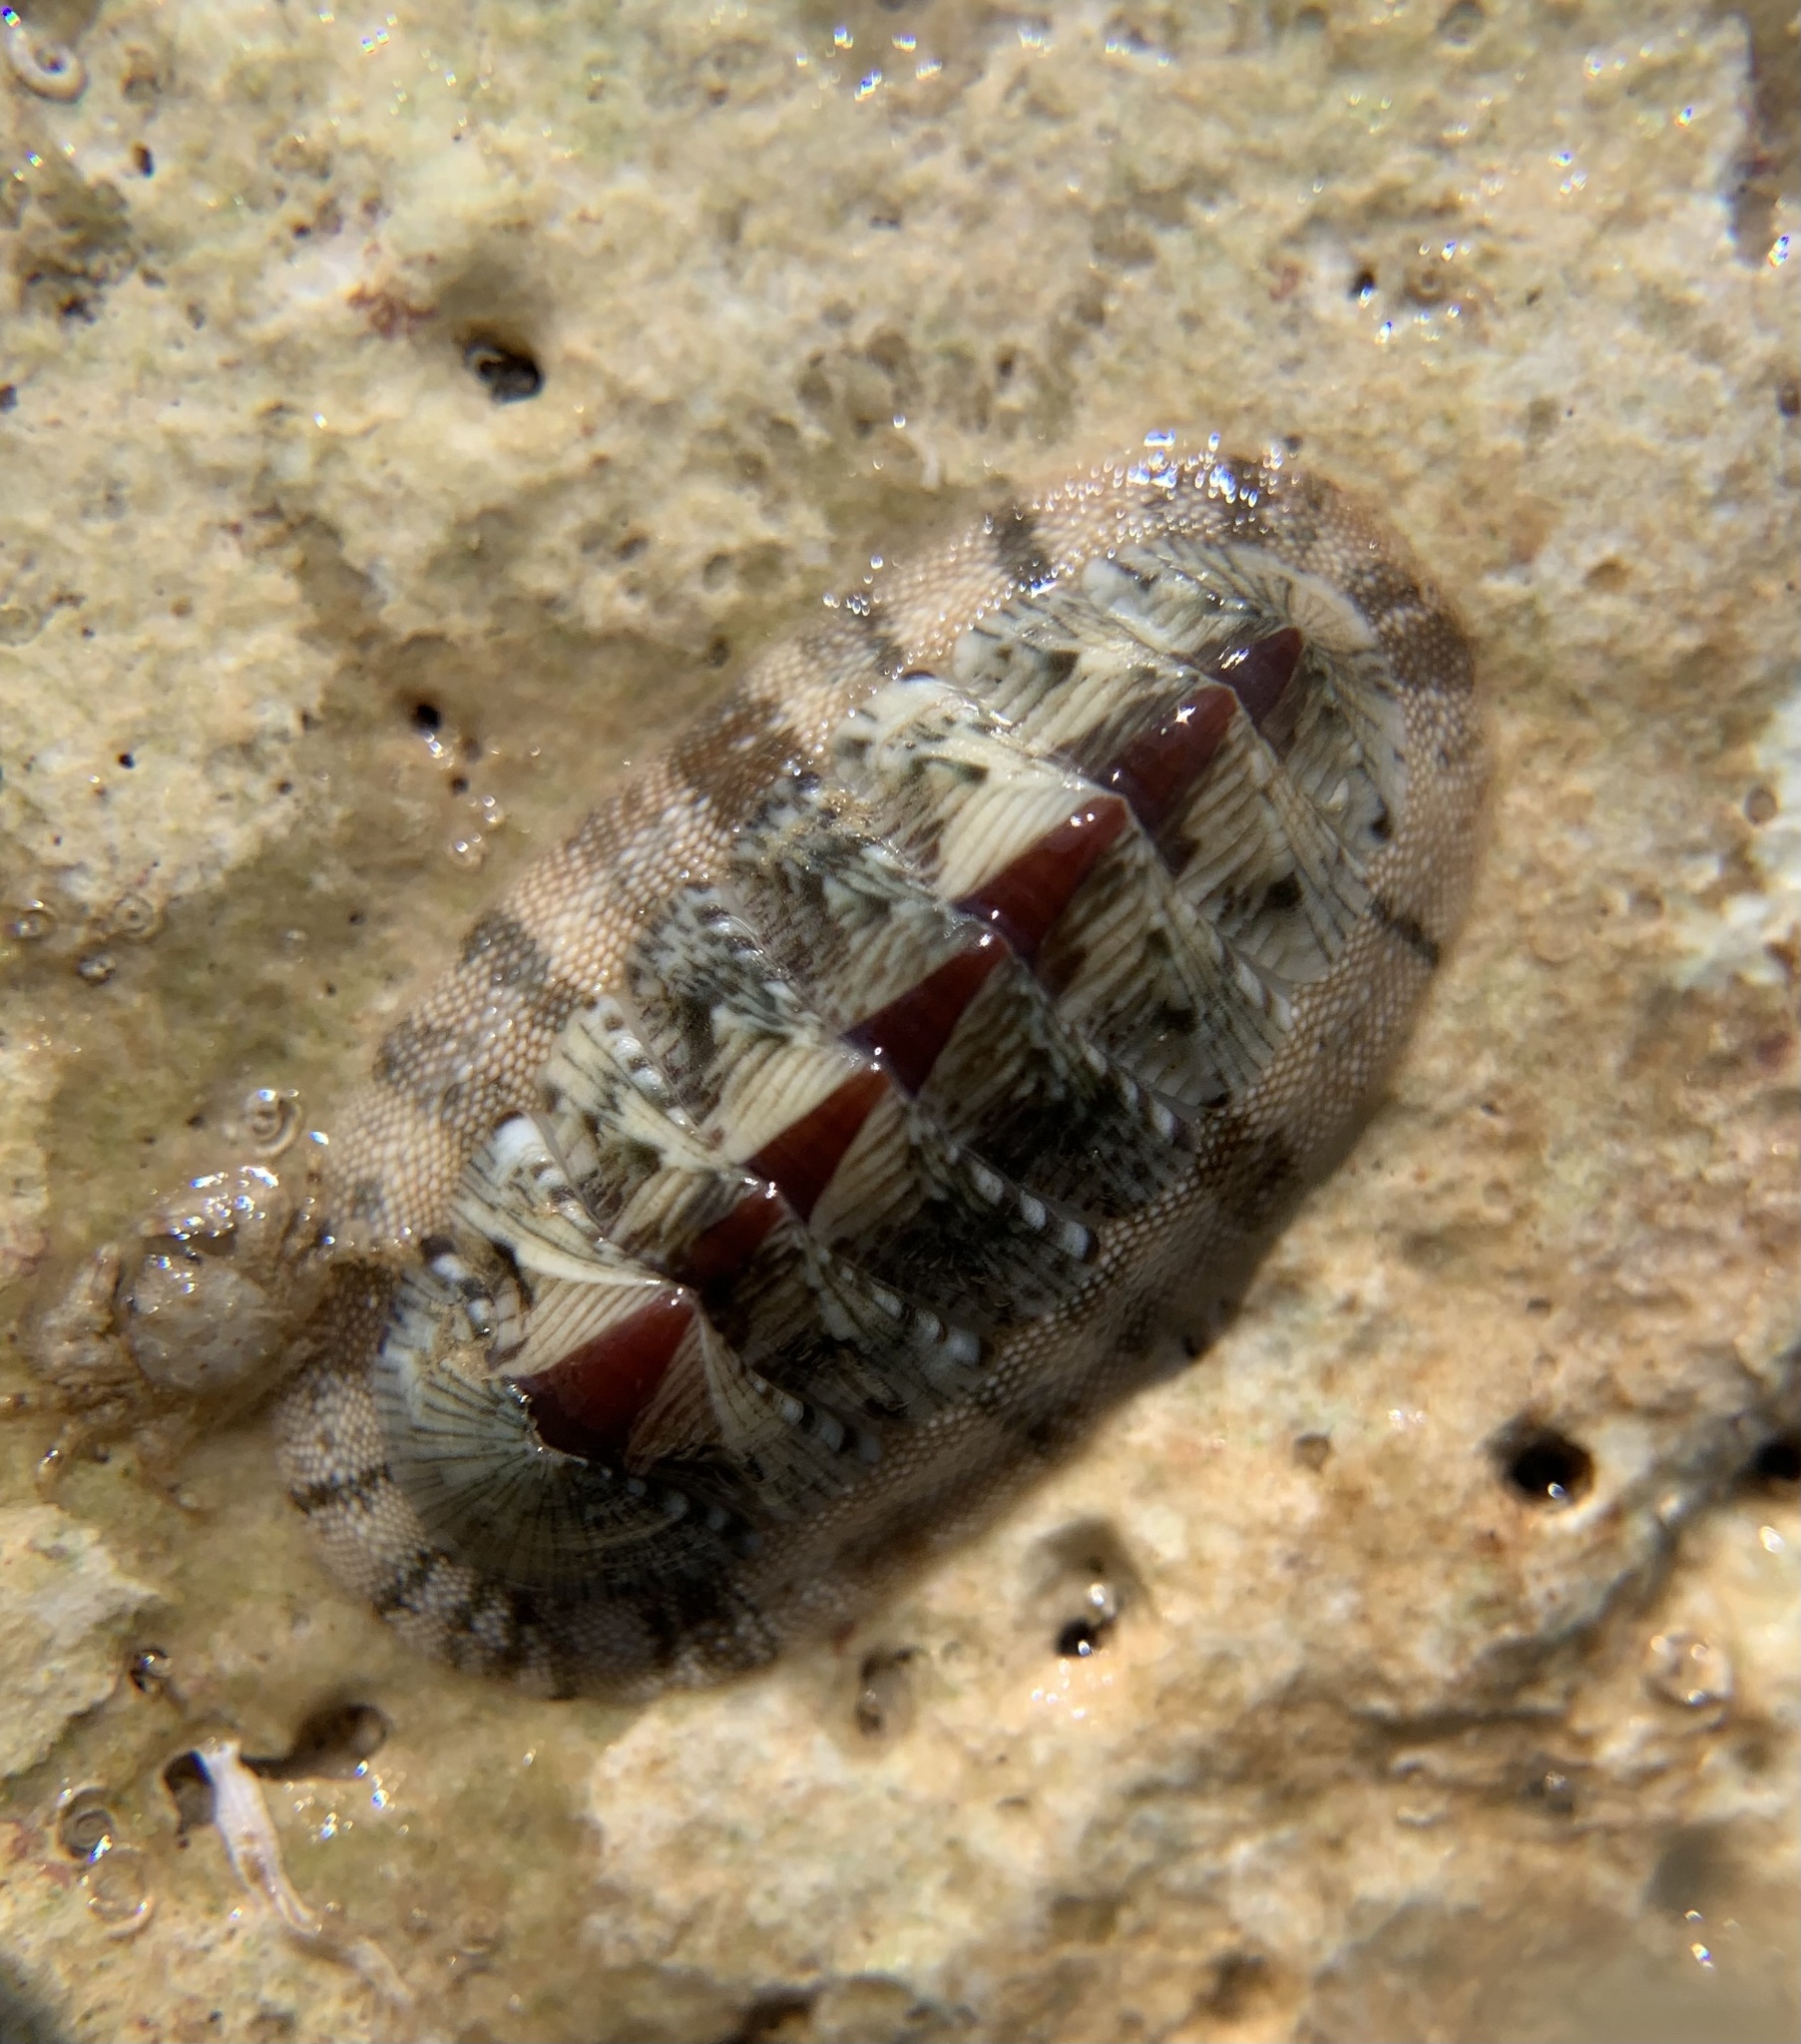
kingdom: Animalia
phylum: Mollusca
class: Polyplacophora
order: Chitonida
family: Chitonidae
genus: Rhyssoplax
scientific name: Rhyssoplax olivacea
